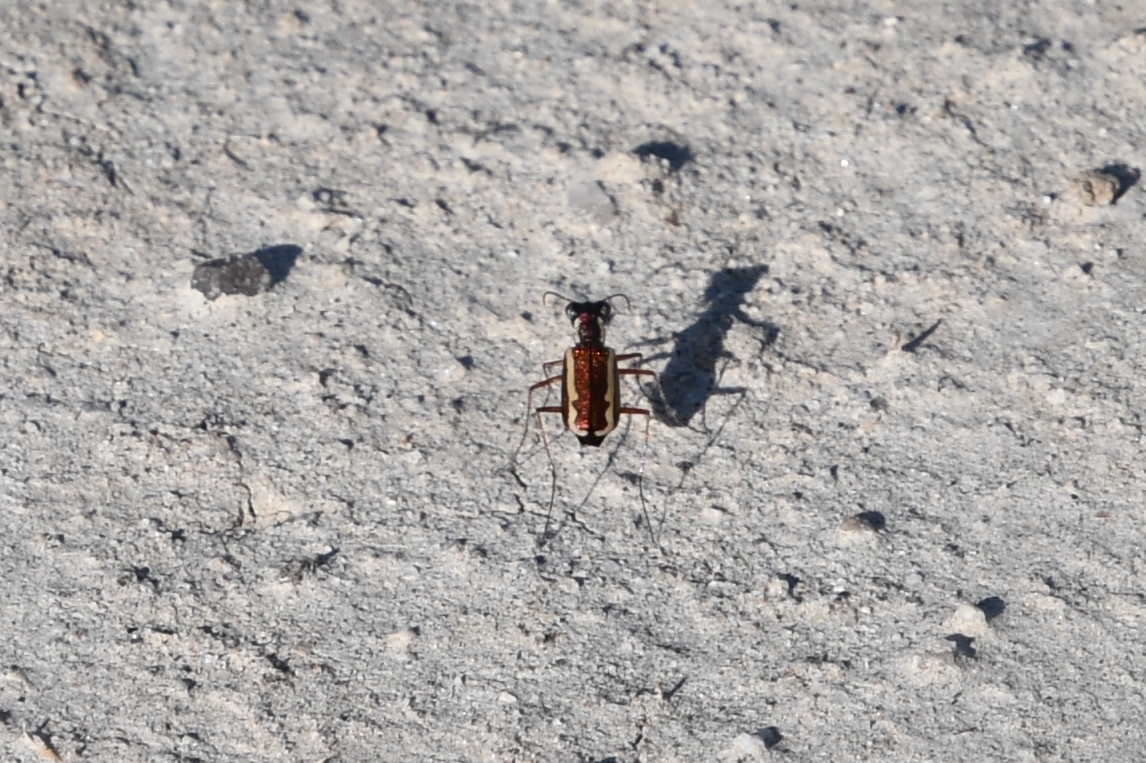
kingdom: Animalia
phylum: Arthropoda
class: Insecta
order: Coleoptera
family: Carabidae
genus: Cylindera
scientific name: Cylindera lemniscata
